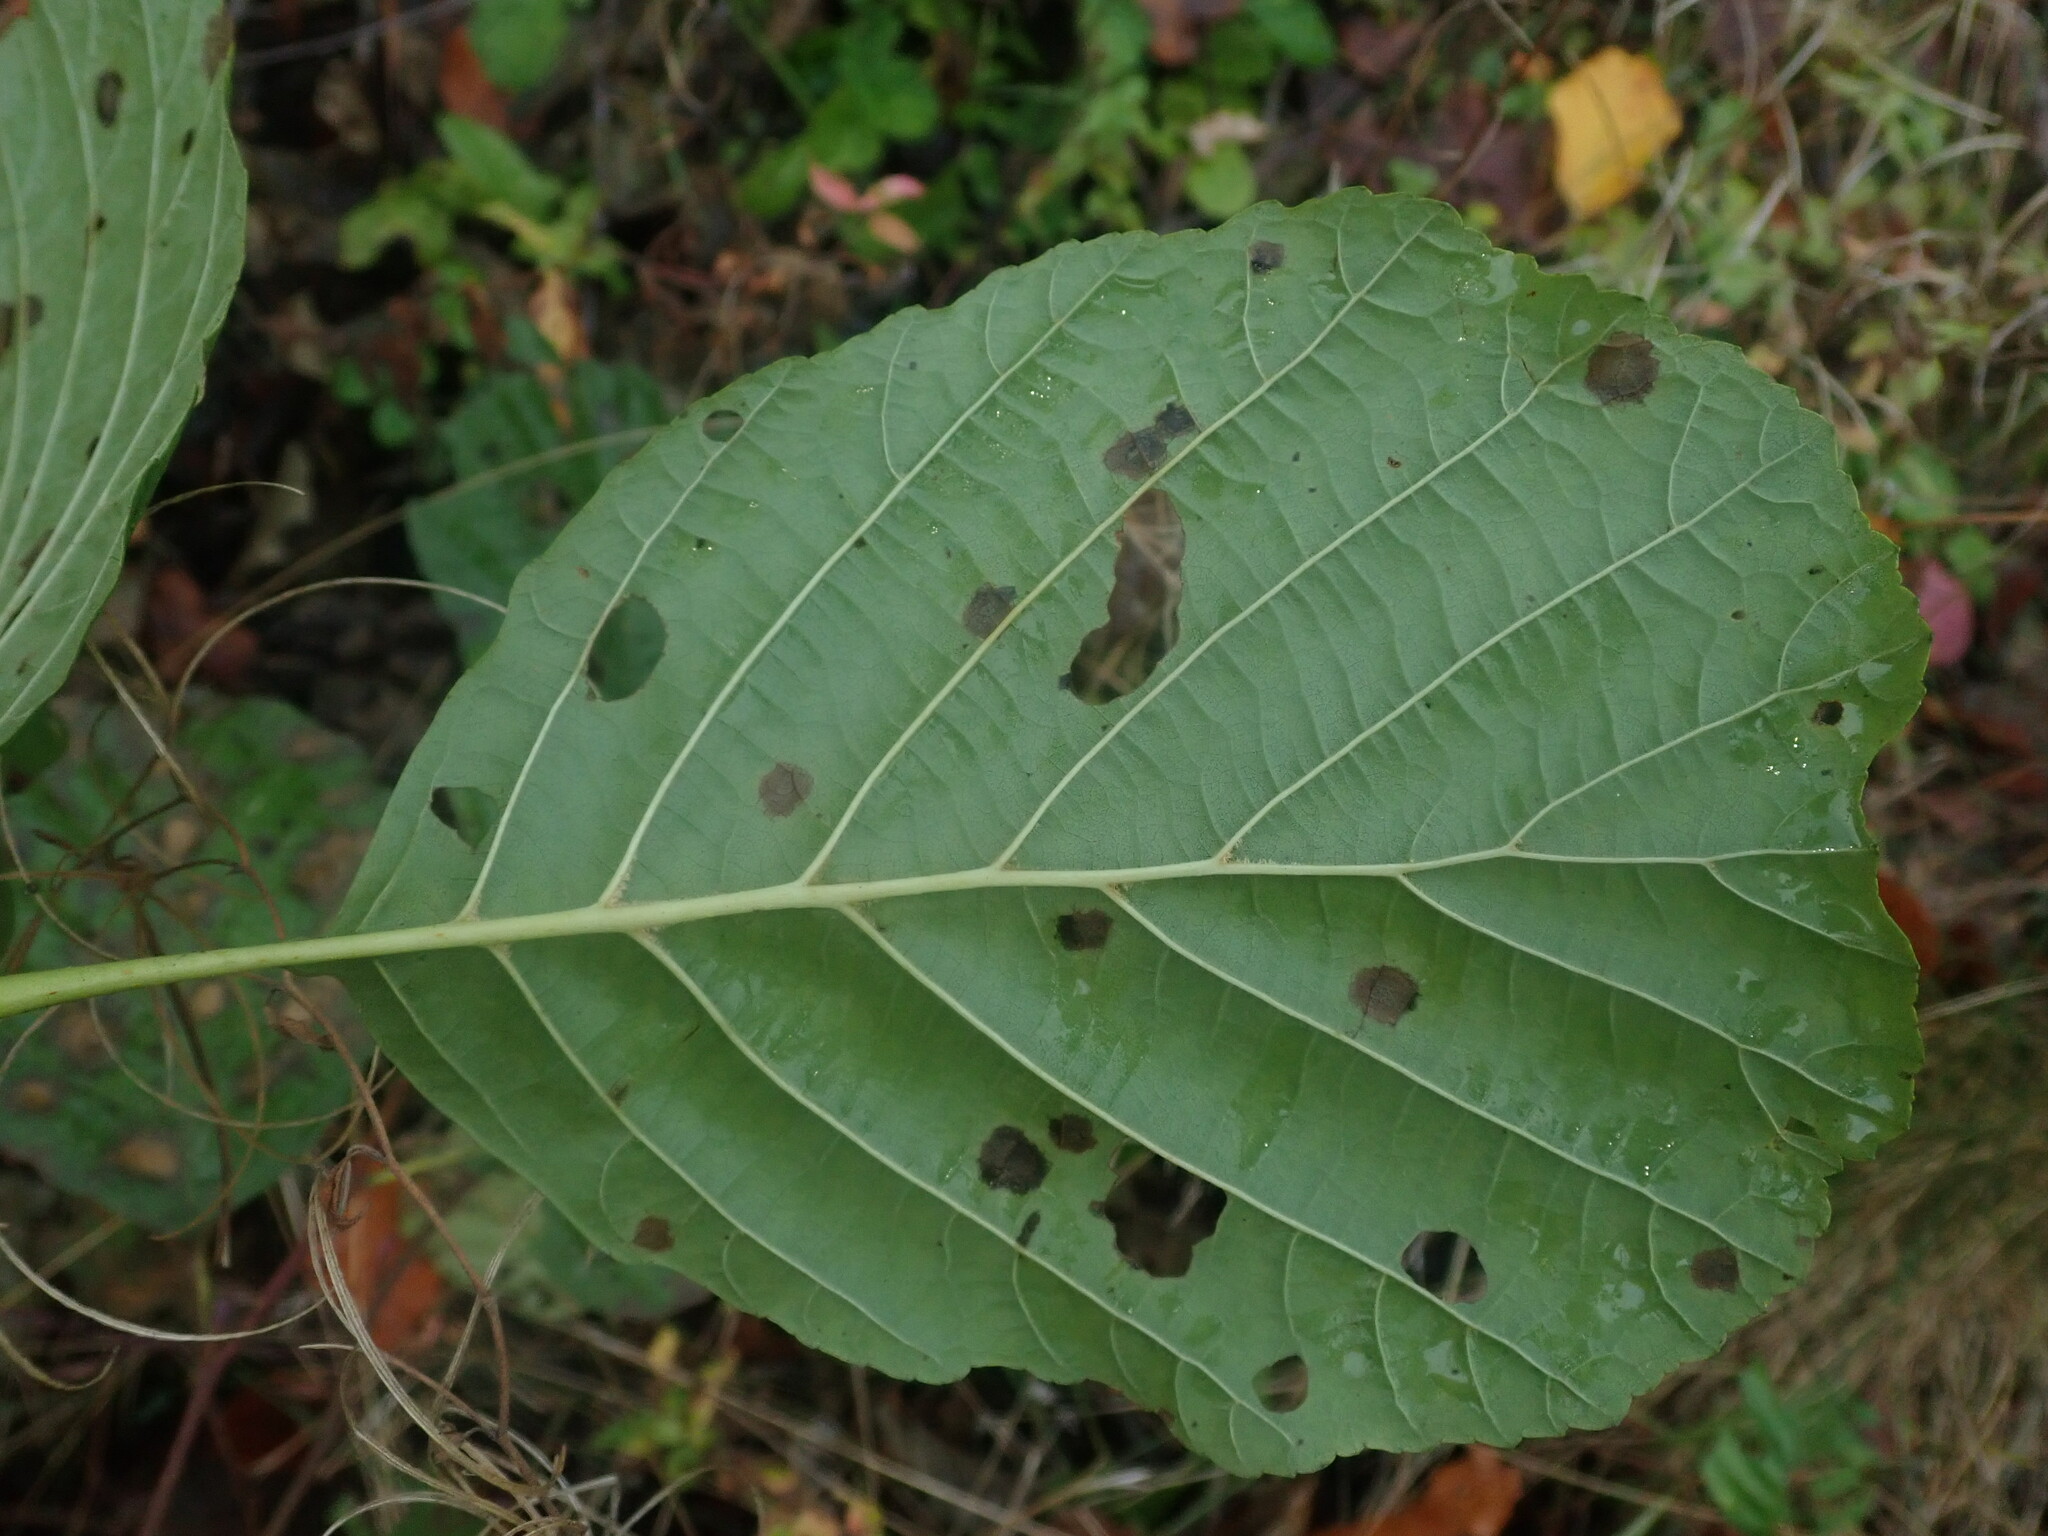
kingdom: Plantae
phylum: Tracheophyta
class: Magnoliopsida
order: Fagales
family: Betulaceae
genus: Alnus
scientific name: Alnus glutinosa
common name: Black alder
